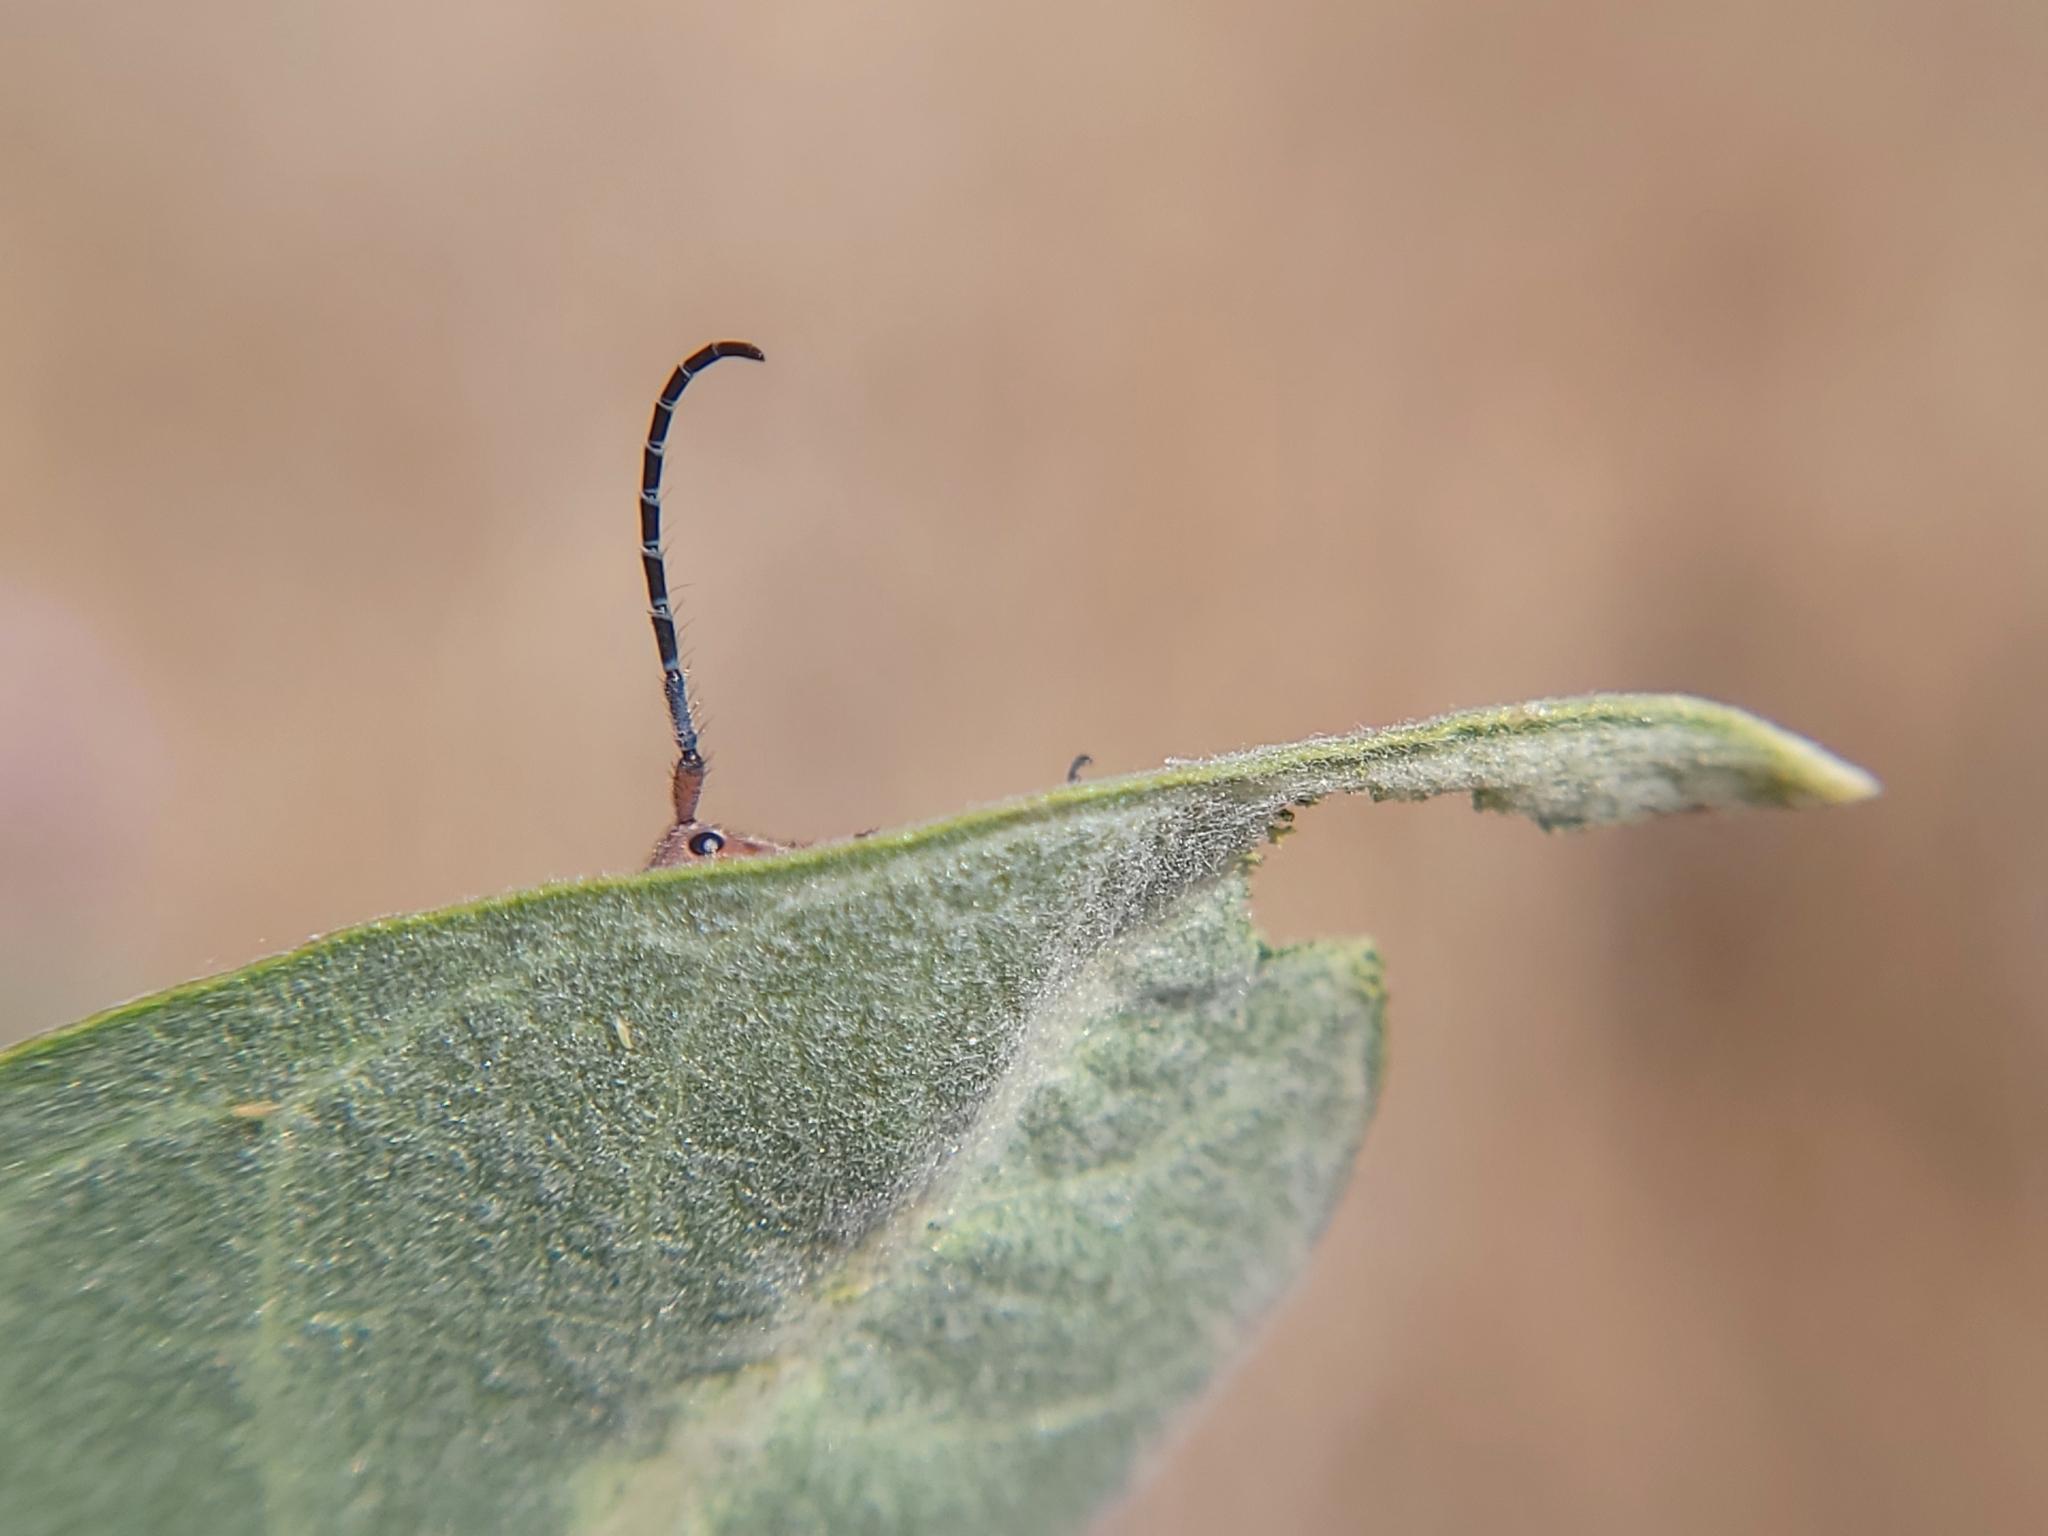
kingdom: Animalia
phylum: Arthropoda
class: Insecta
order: Coleoptera
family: Cerambycidae
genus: Tetraopes
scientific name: Tetraopes femoratus
